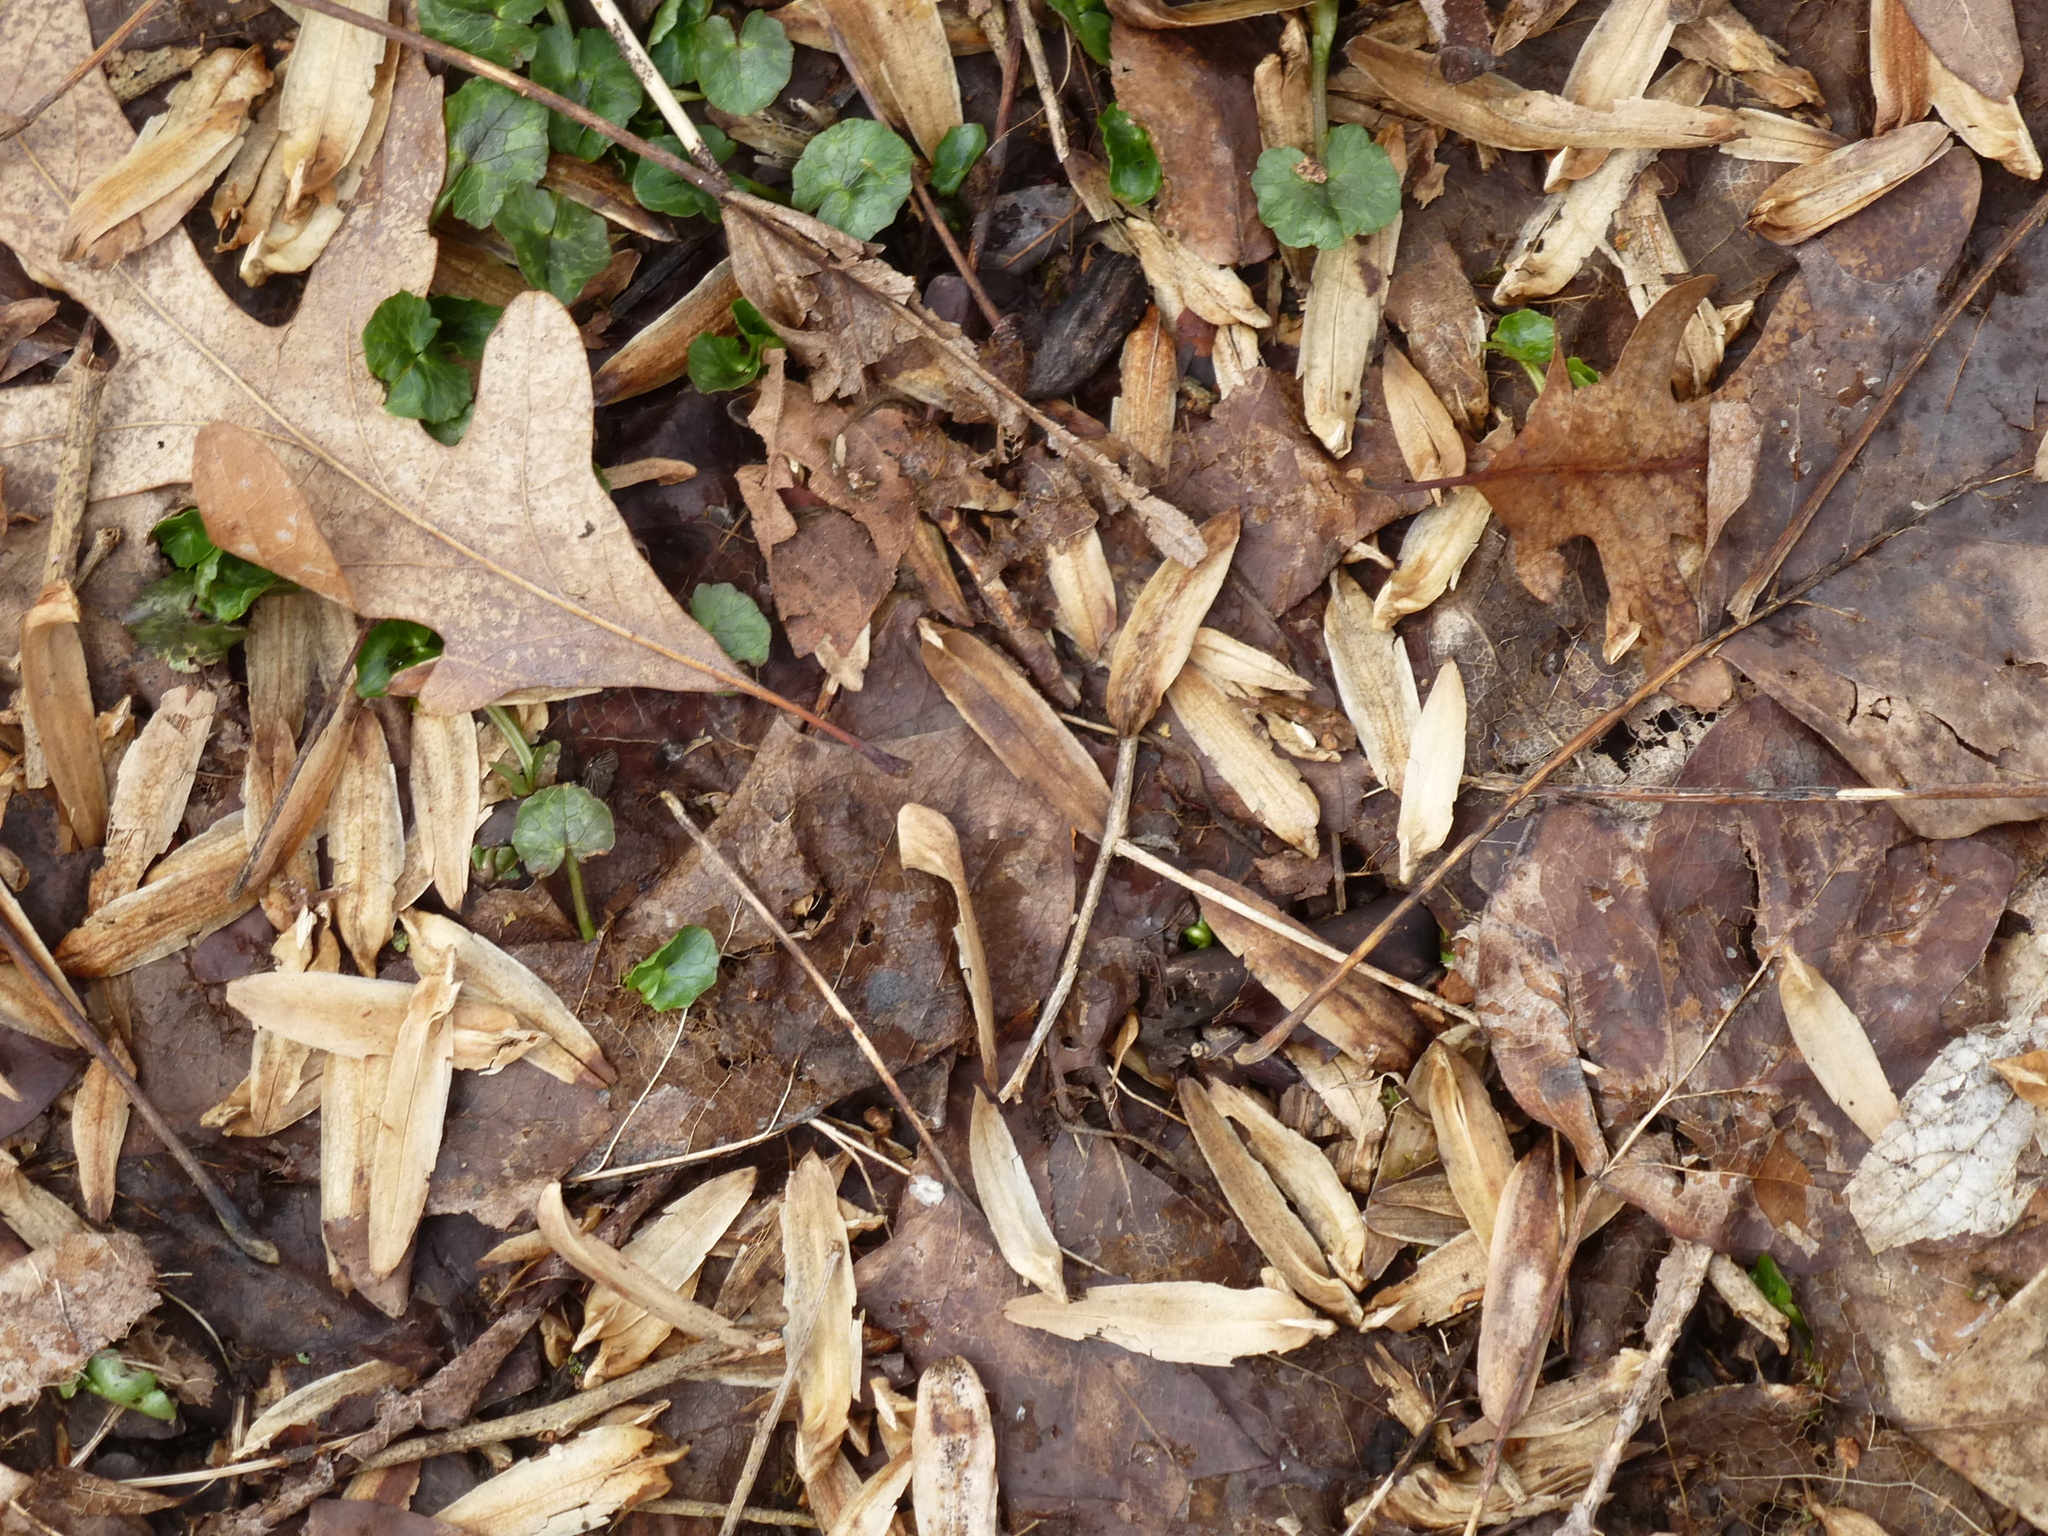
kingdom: Plantae
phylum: Tracheophyta
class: Magnoliopsida
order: Magnoliales
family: Magnoliaceae
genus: Liriodendron
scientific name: Liriodendron tulipifera
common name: Tulip tree
